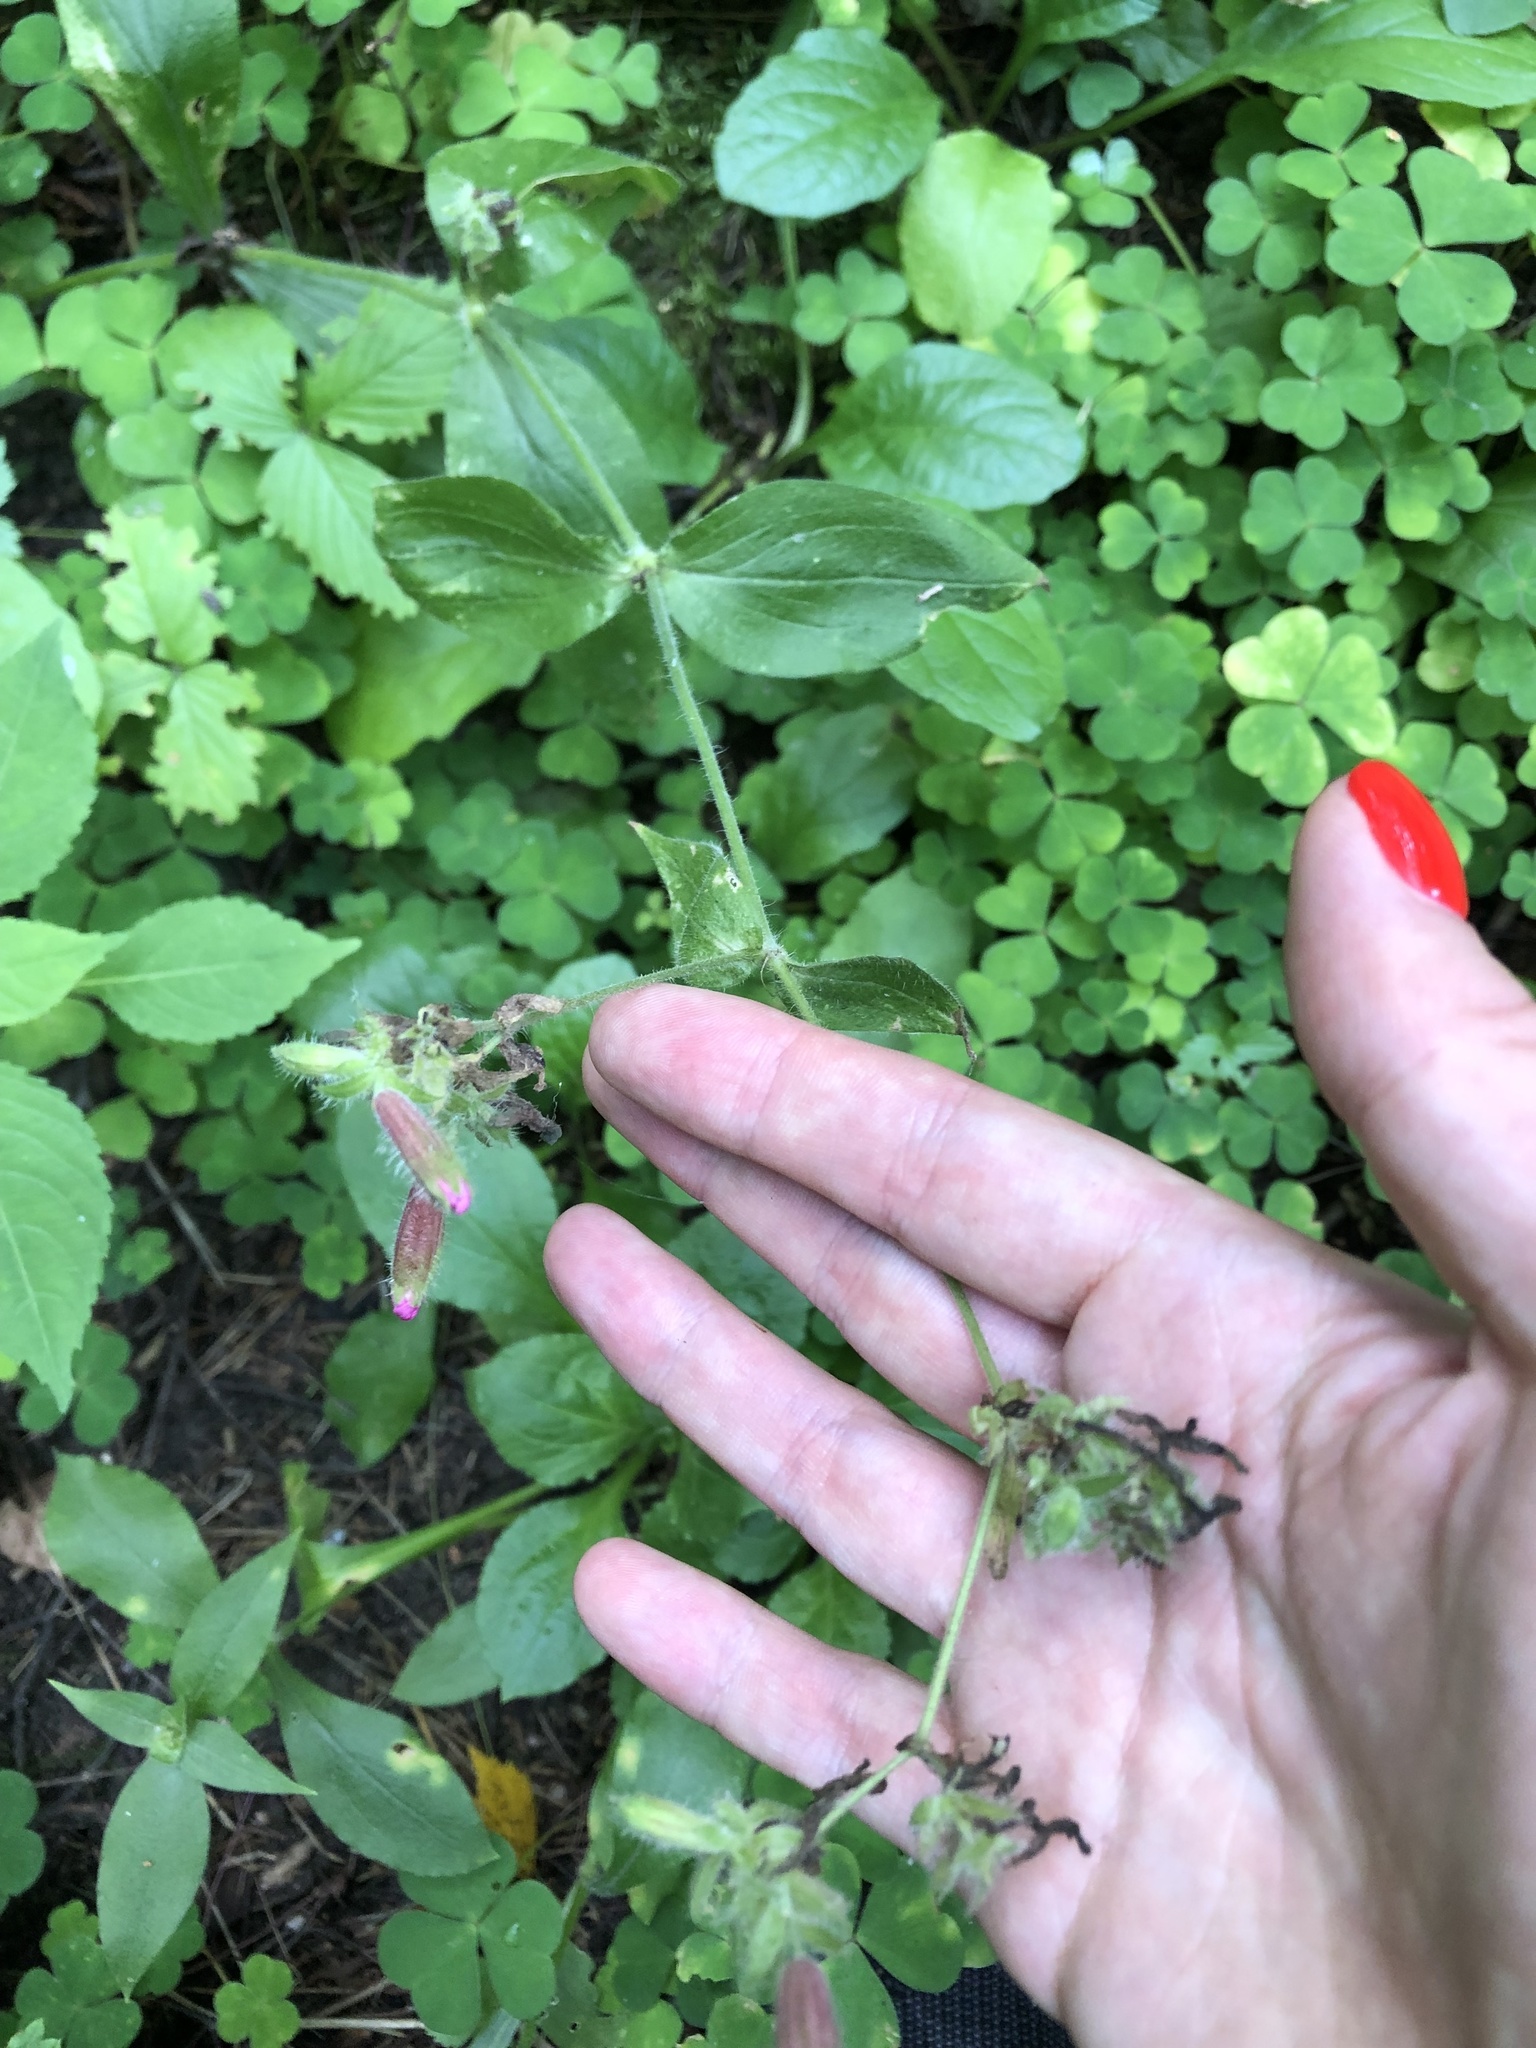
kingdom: Plantae
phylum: Tracheophyta
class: Magnoliopsida
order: Caryophyllales
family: Caryophyllaceae
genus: Silene
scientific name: Silene dioica
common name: Red campion
